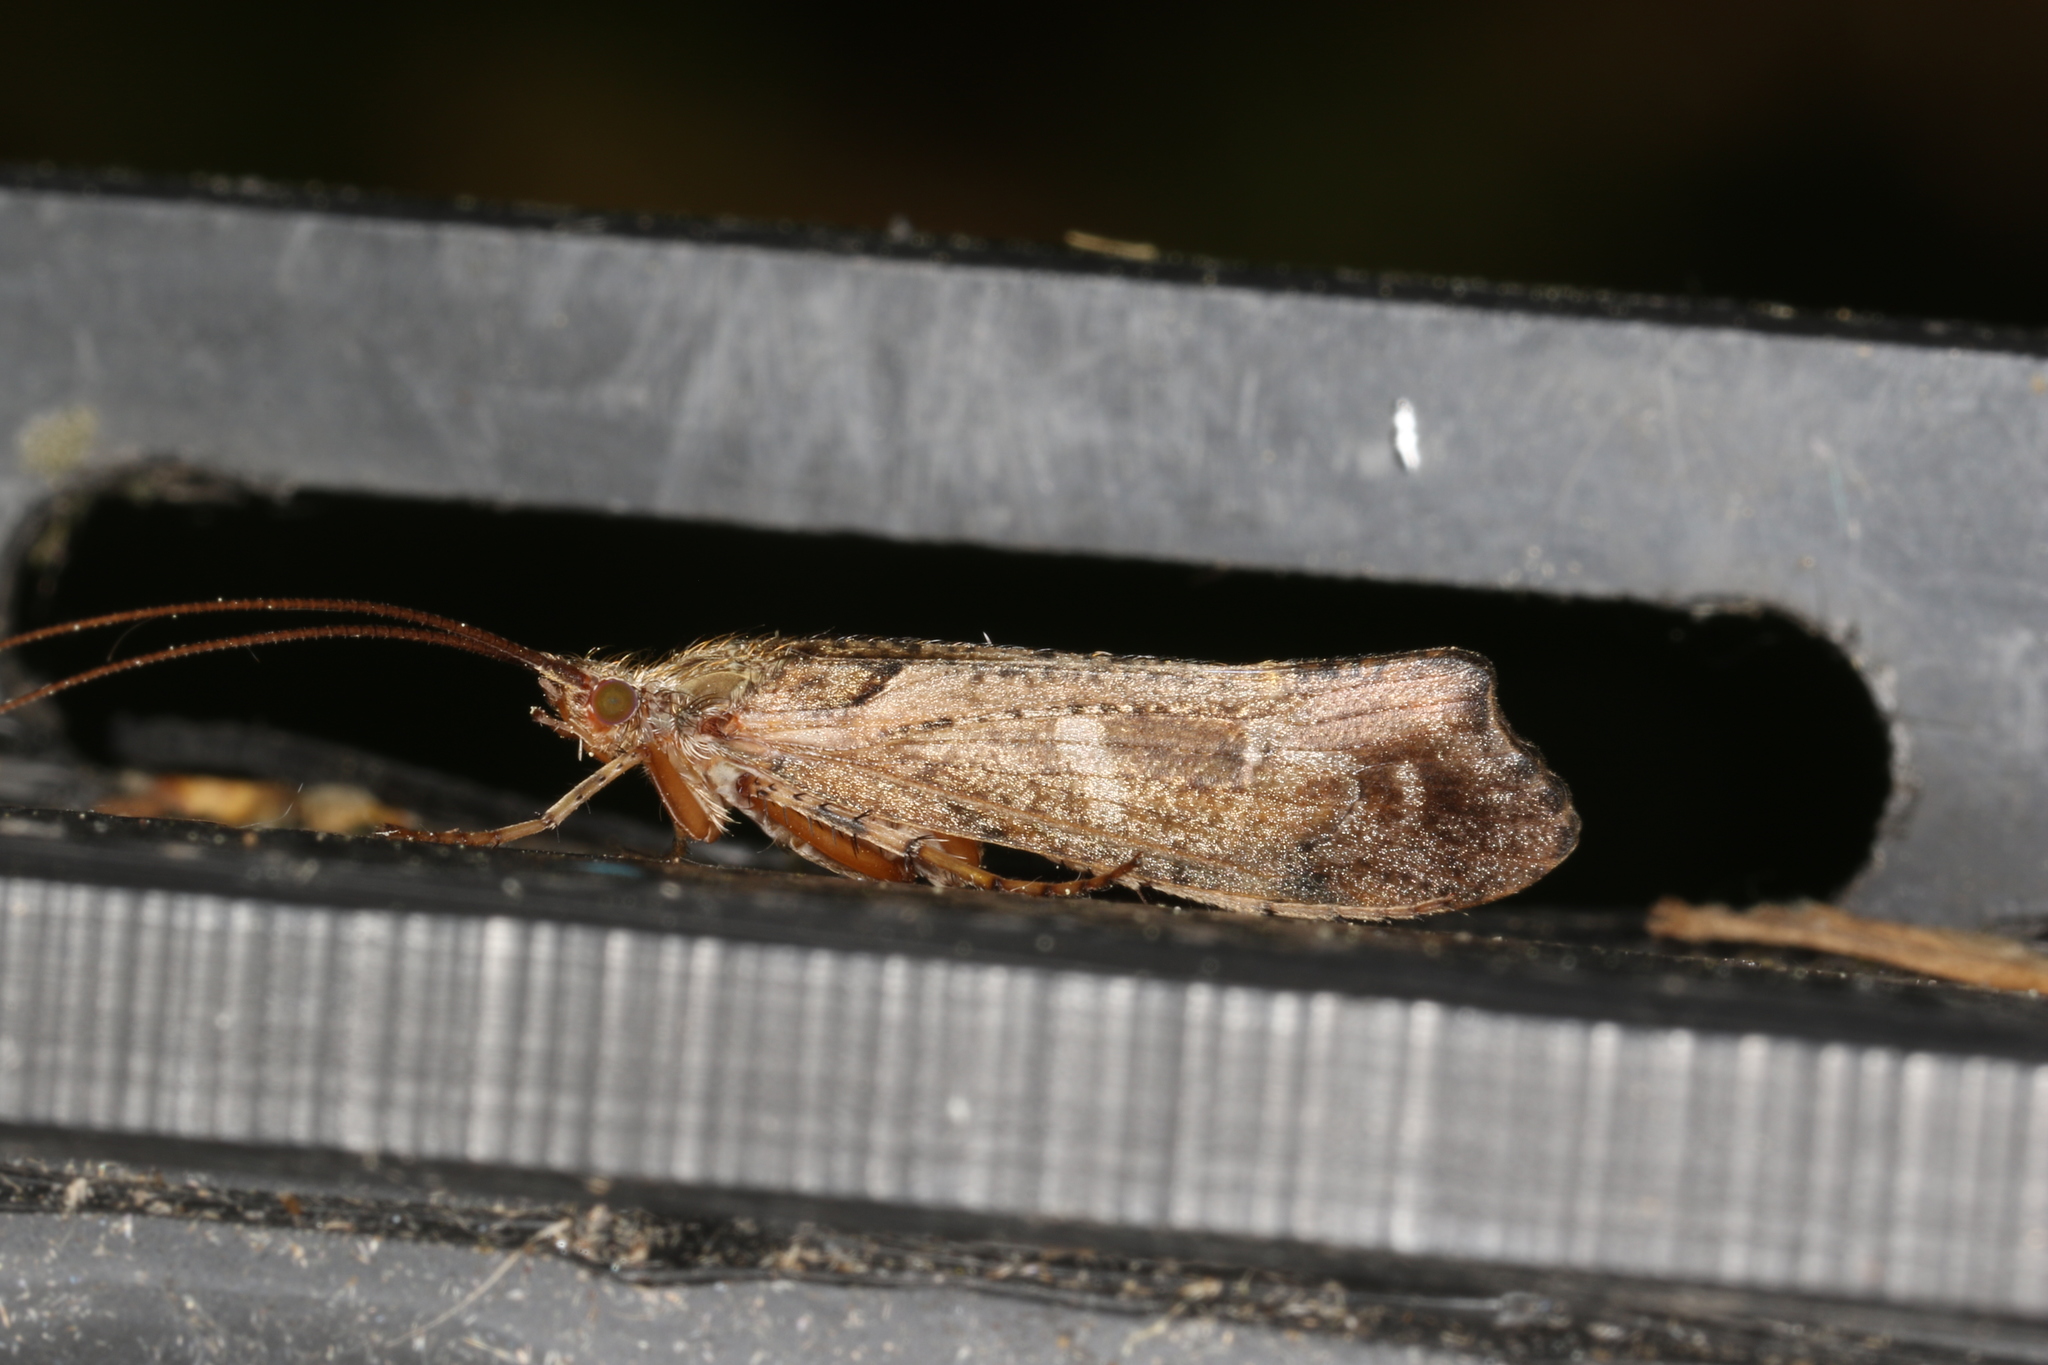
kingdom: Animalia
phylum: Arthropoda
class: Insecta
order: Trichoptera
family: Limnephilidae
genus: Glyphotaelius
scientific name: Glyphotaelius pellucidus
